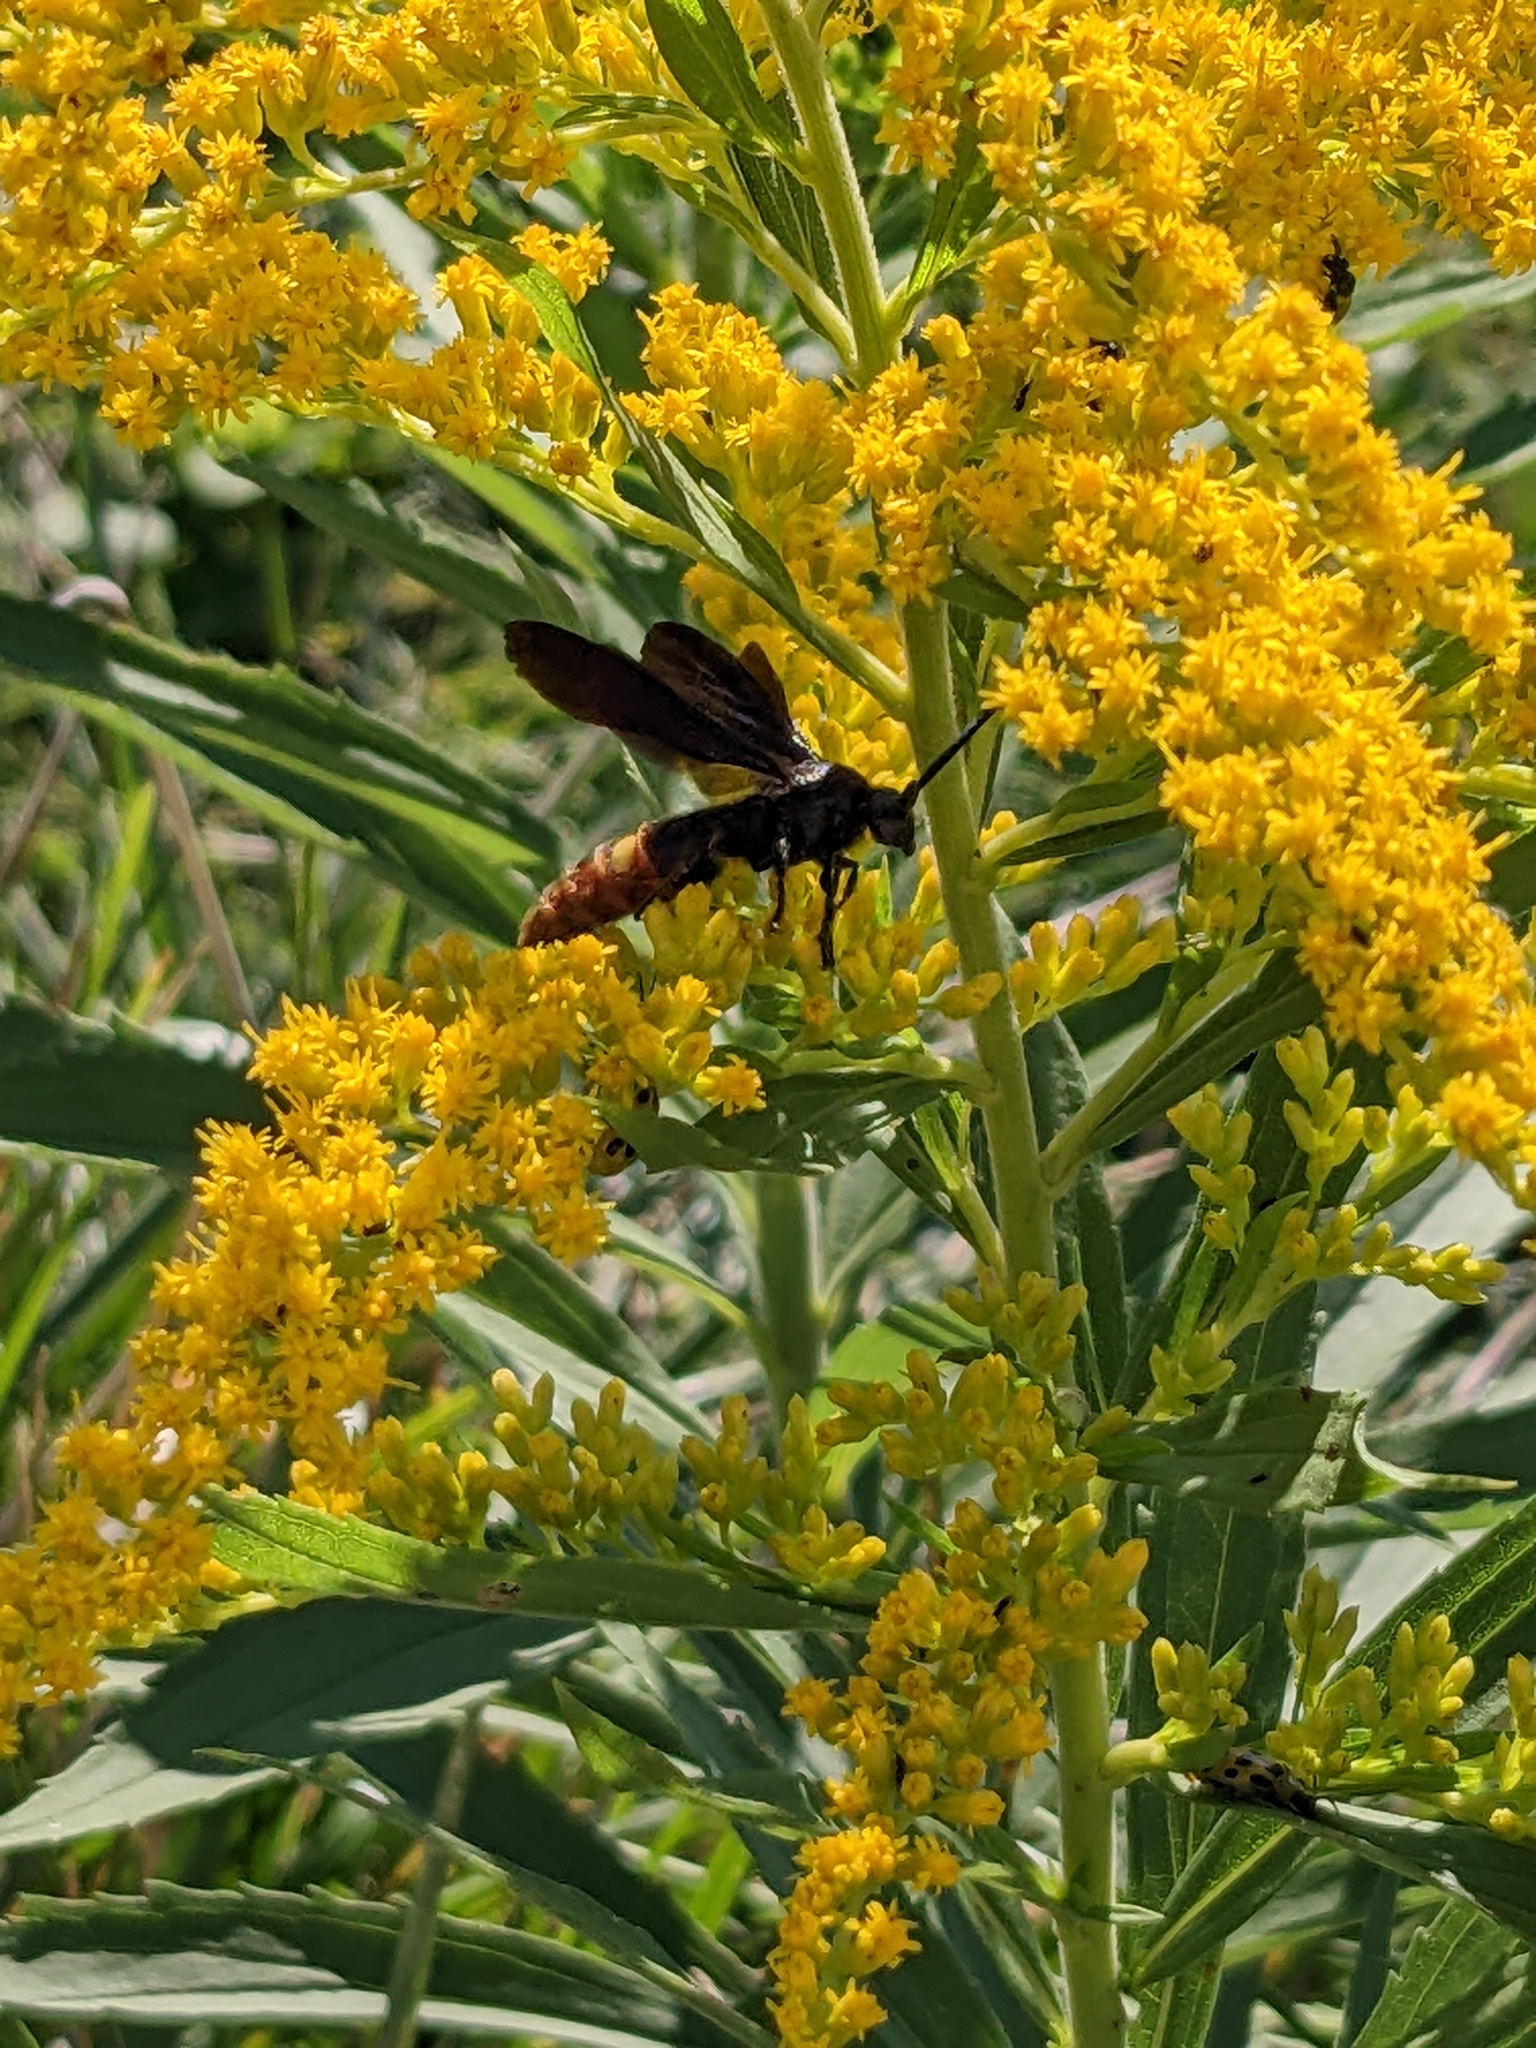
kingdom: Animalia
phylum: Arthropoda
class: Insecta
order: Hymenoptera
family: Scoliidae
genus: Scolia
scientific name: Scolia dubia
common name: Blue-winged scoliid wasp
